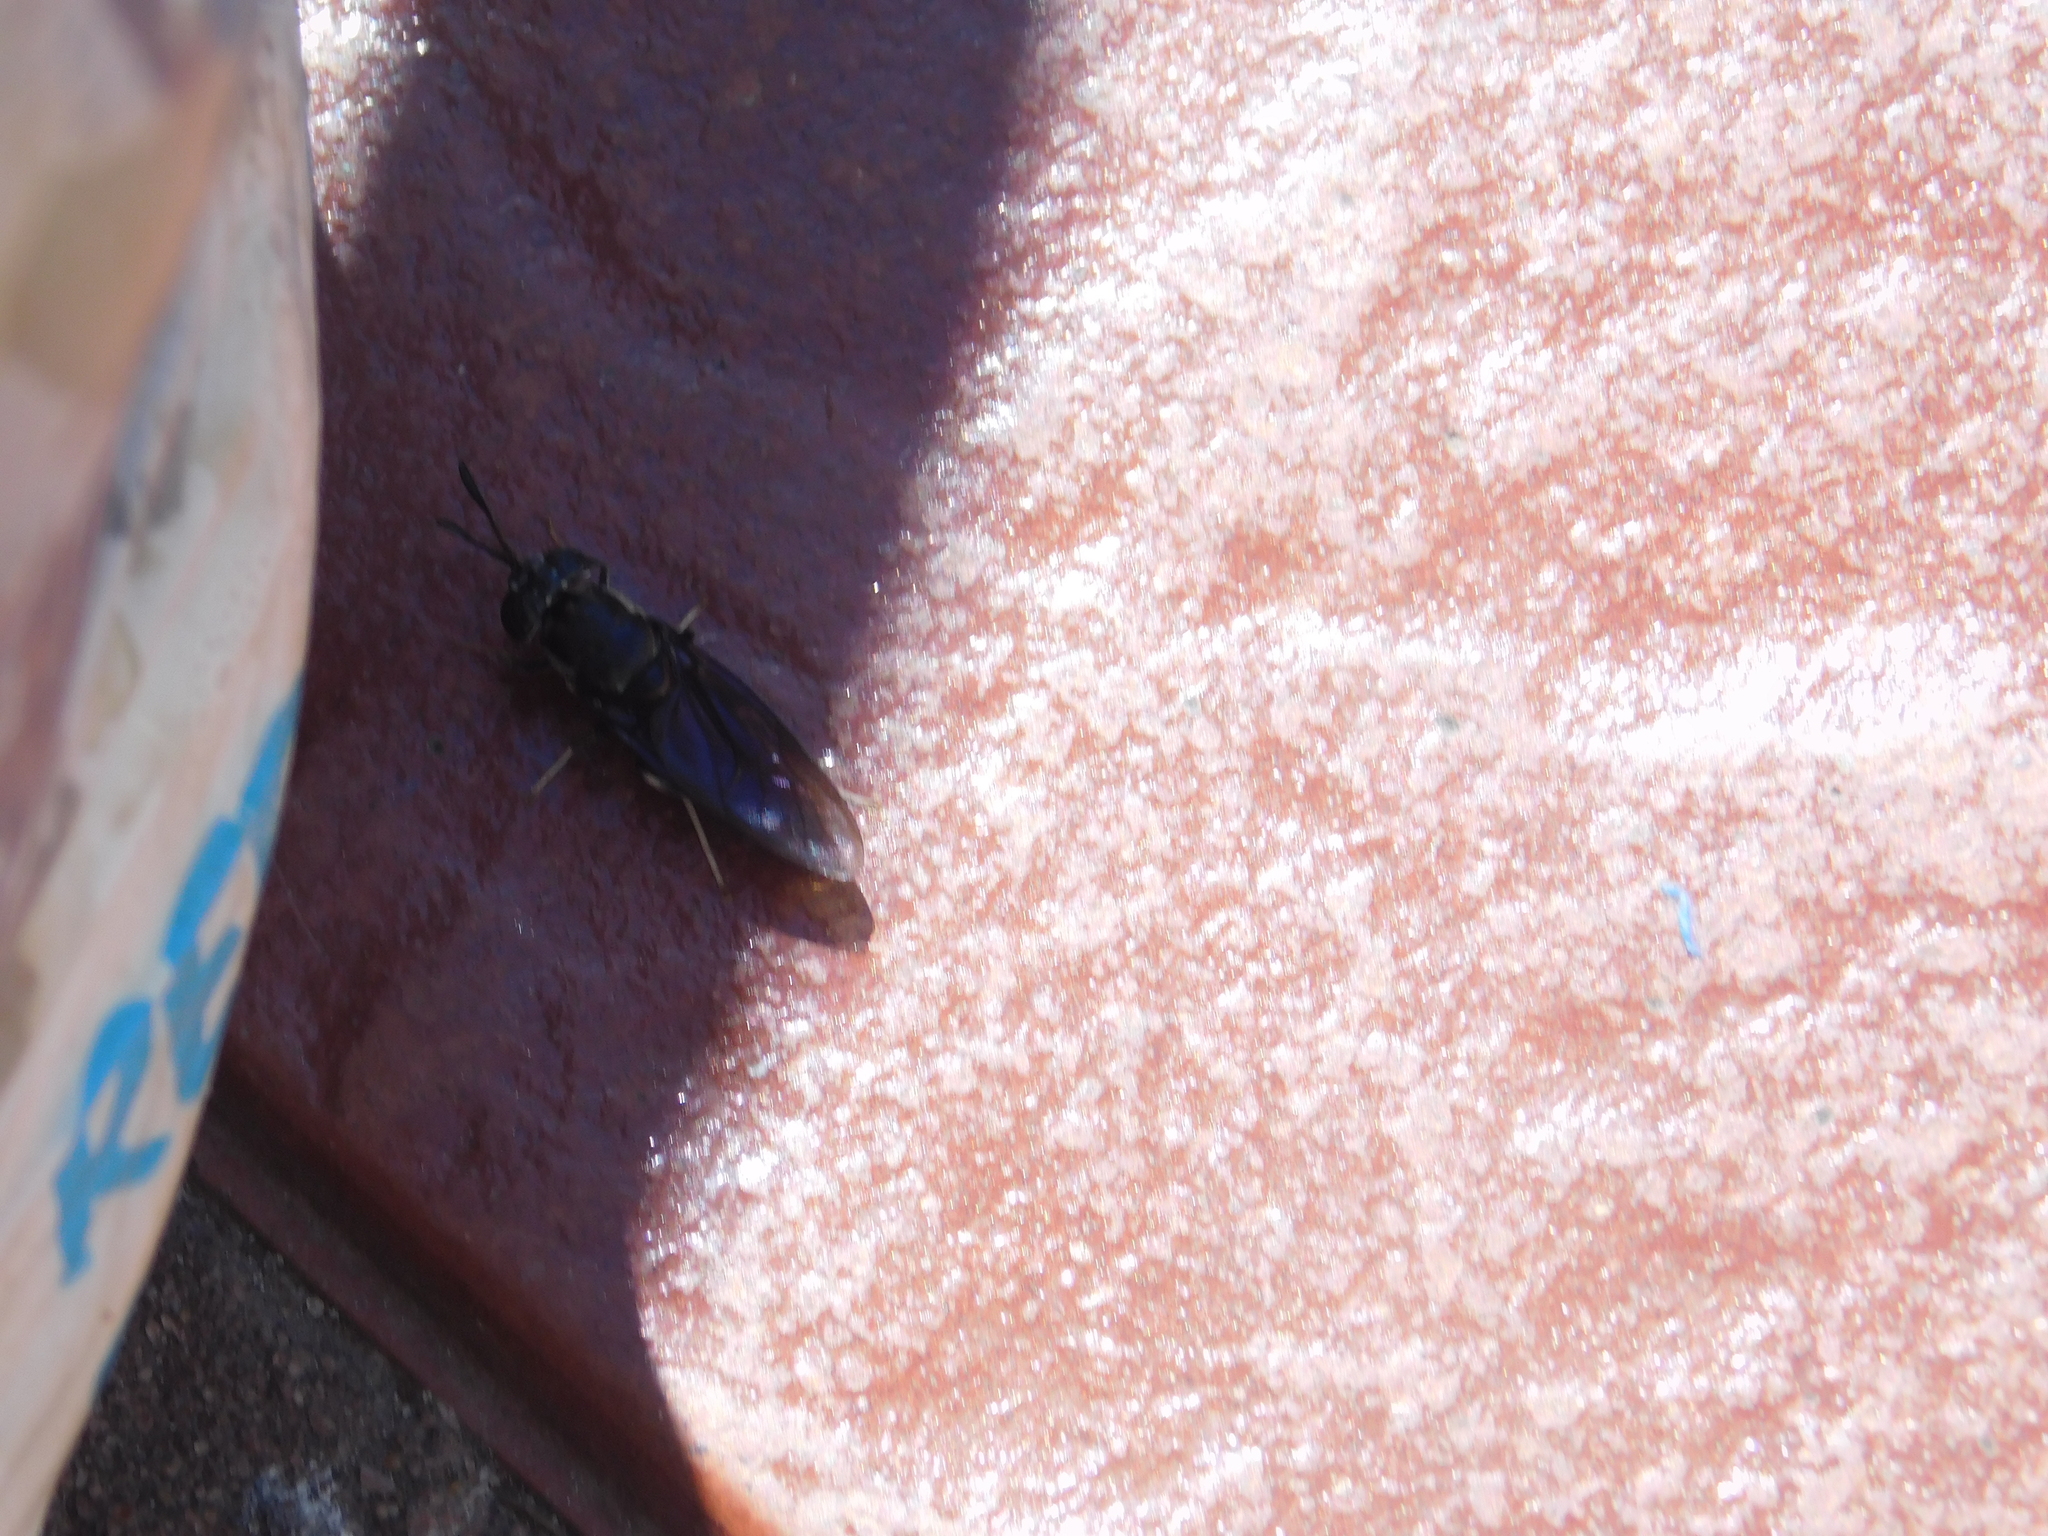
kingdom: Animalia
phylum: Arthropoda
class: Insecta
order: Diptera
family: Stratiomyidae
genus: Hermetia
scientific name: Hermetia illucens
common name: Black soldier fly
